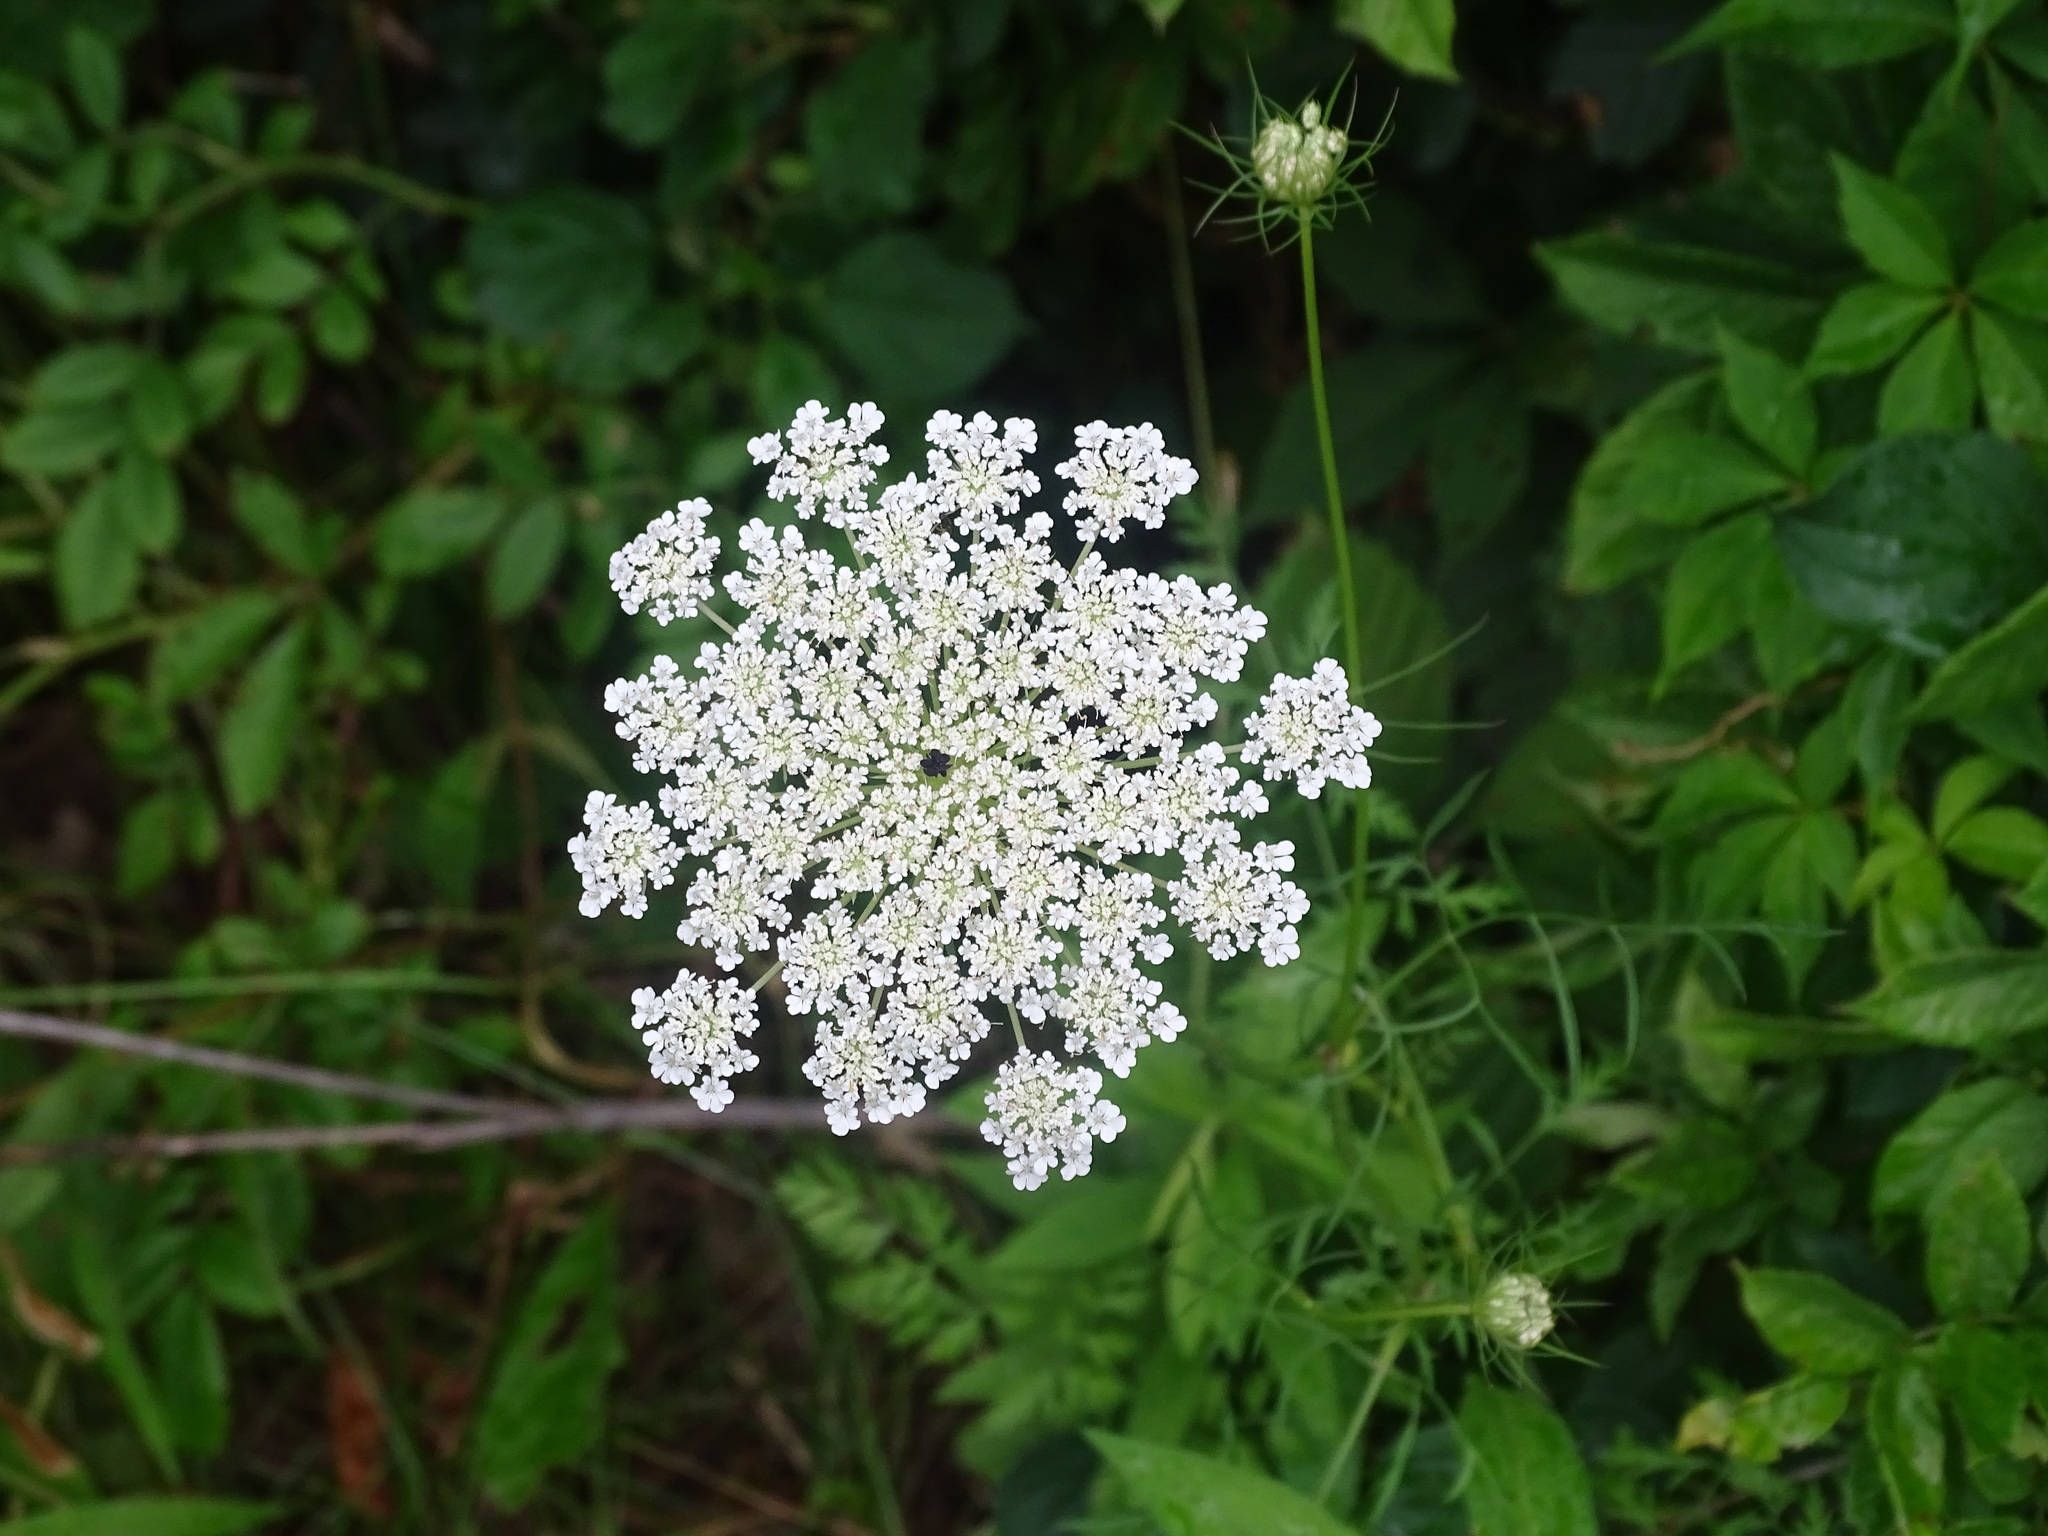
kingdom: Plantae
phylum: Tracheophyta
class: Magnoliopsida
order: Apiales
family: Apiaceae
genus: Daucus
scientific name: Daucus carota
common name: Wild carrot
